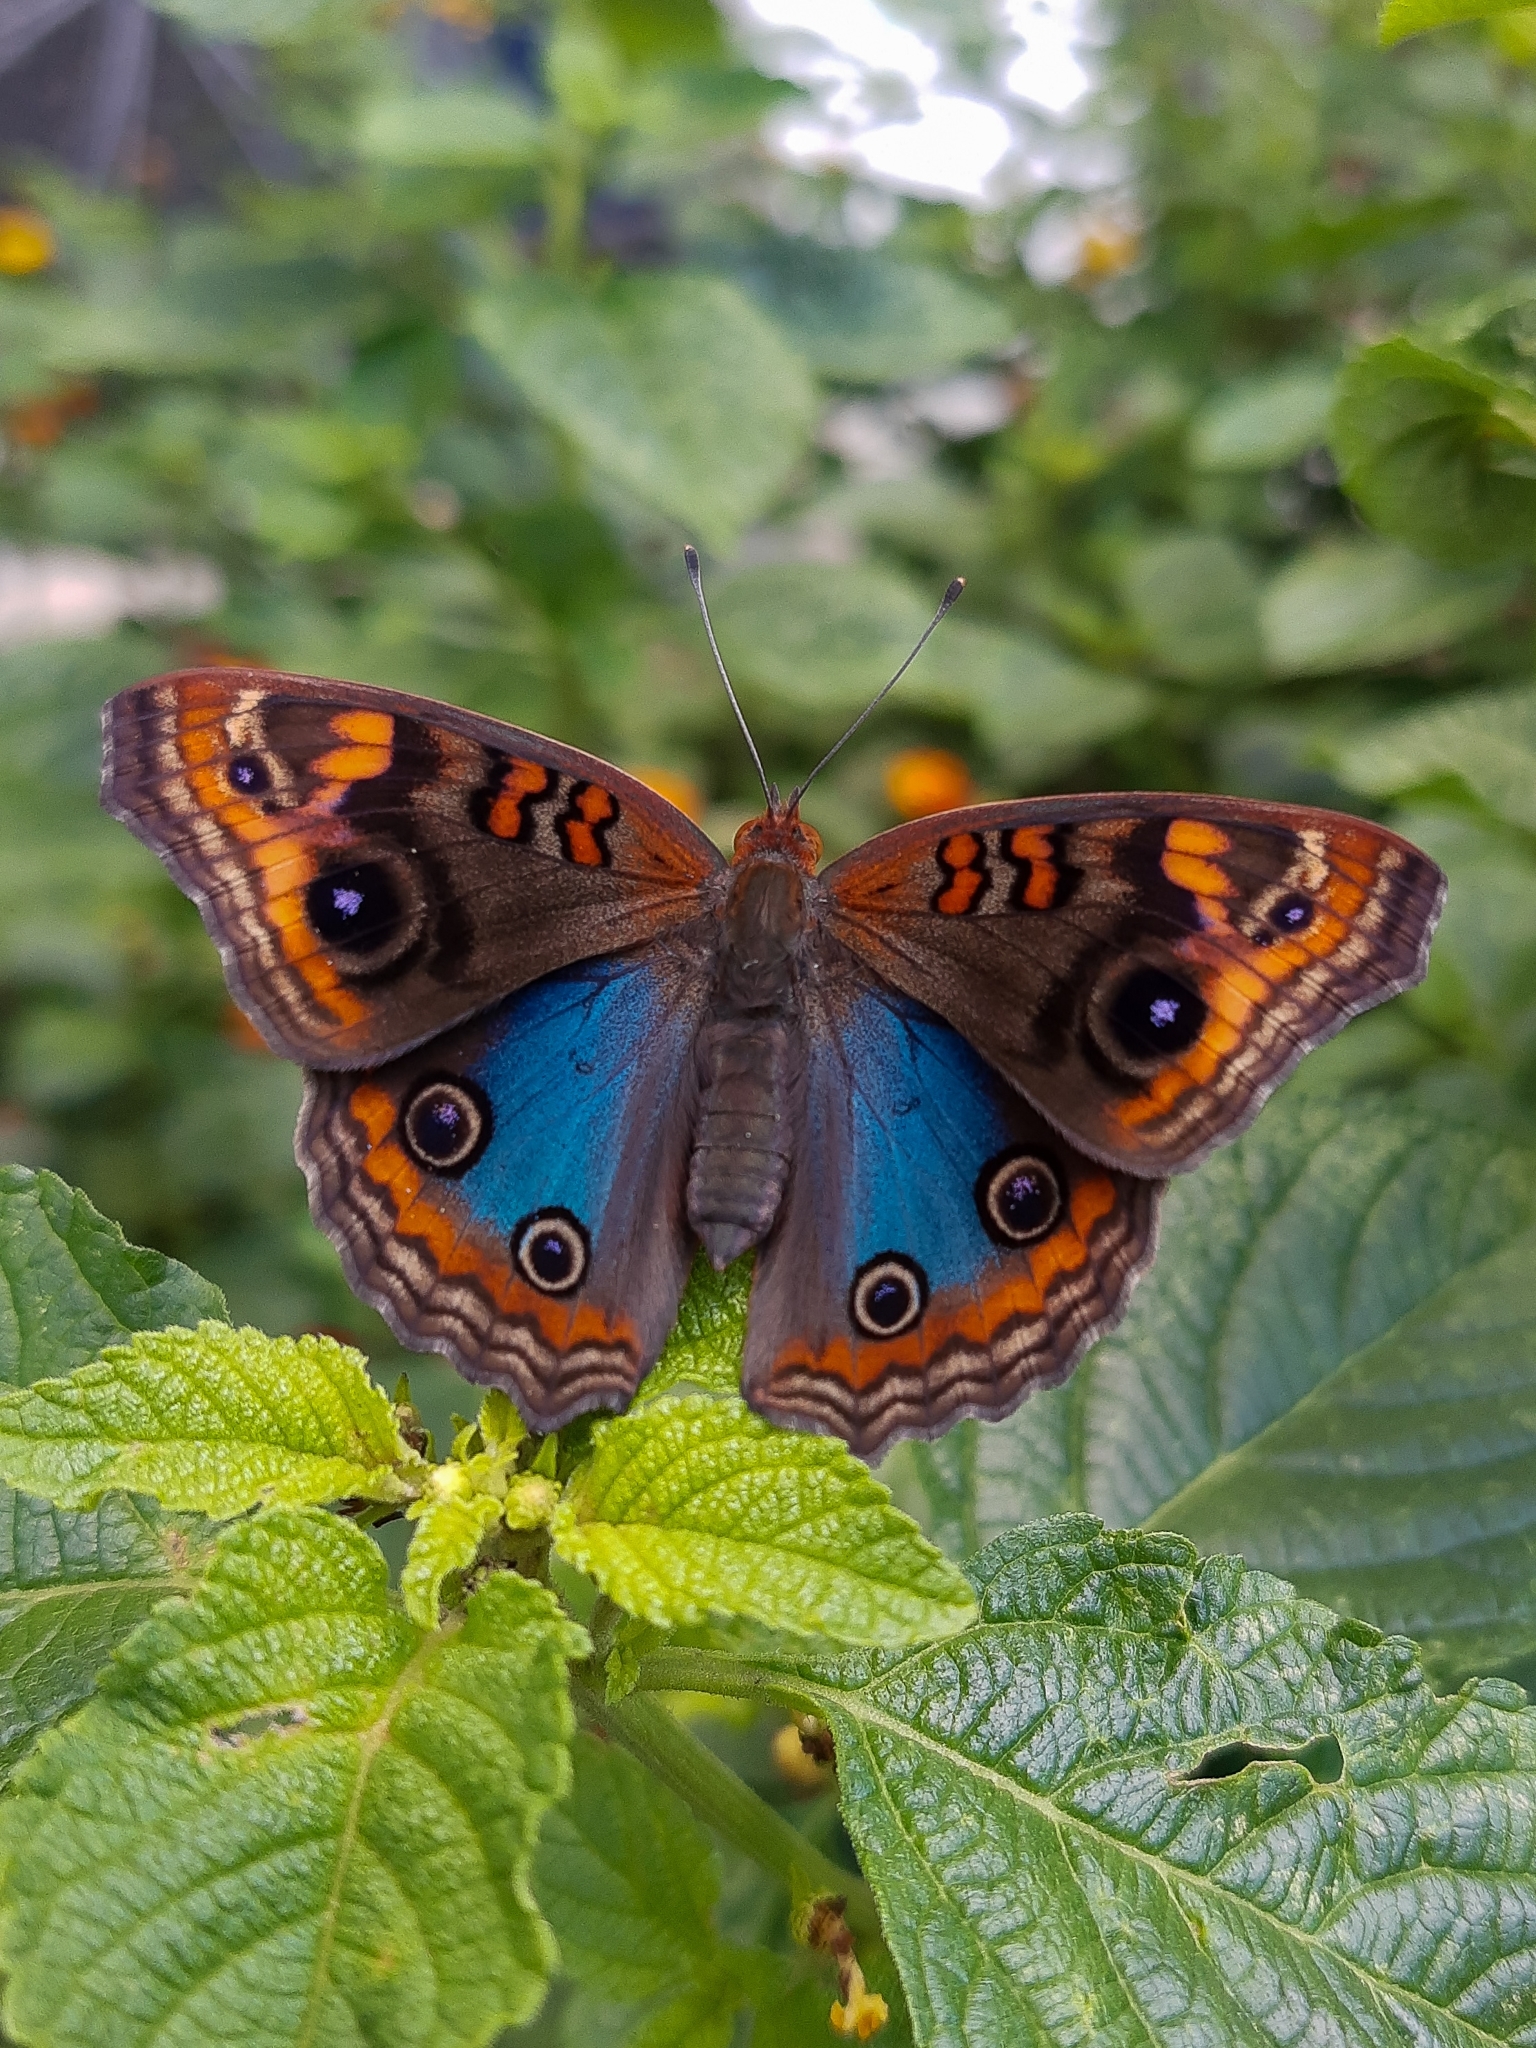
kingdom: Animalia
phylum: Arthropoda
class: Insecta
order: Lepidoptera
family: Nymphalidae
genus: Junonia
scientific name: Junonia evarete
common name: Black mangrove buckeye
